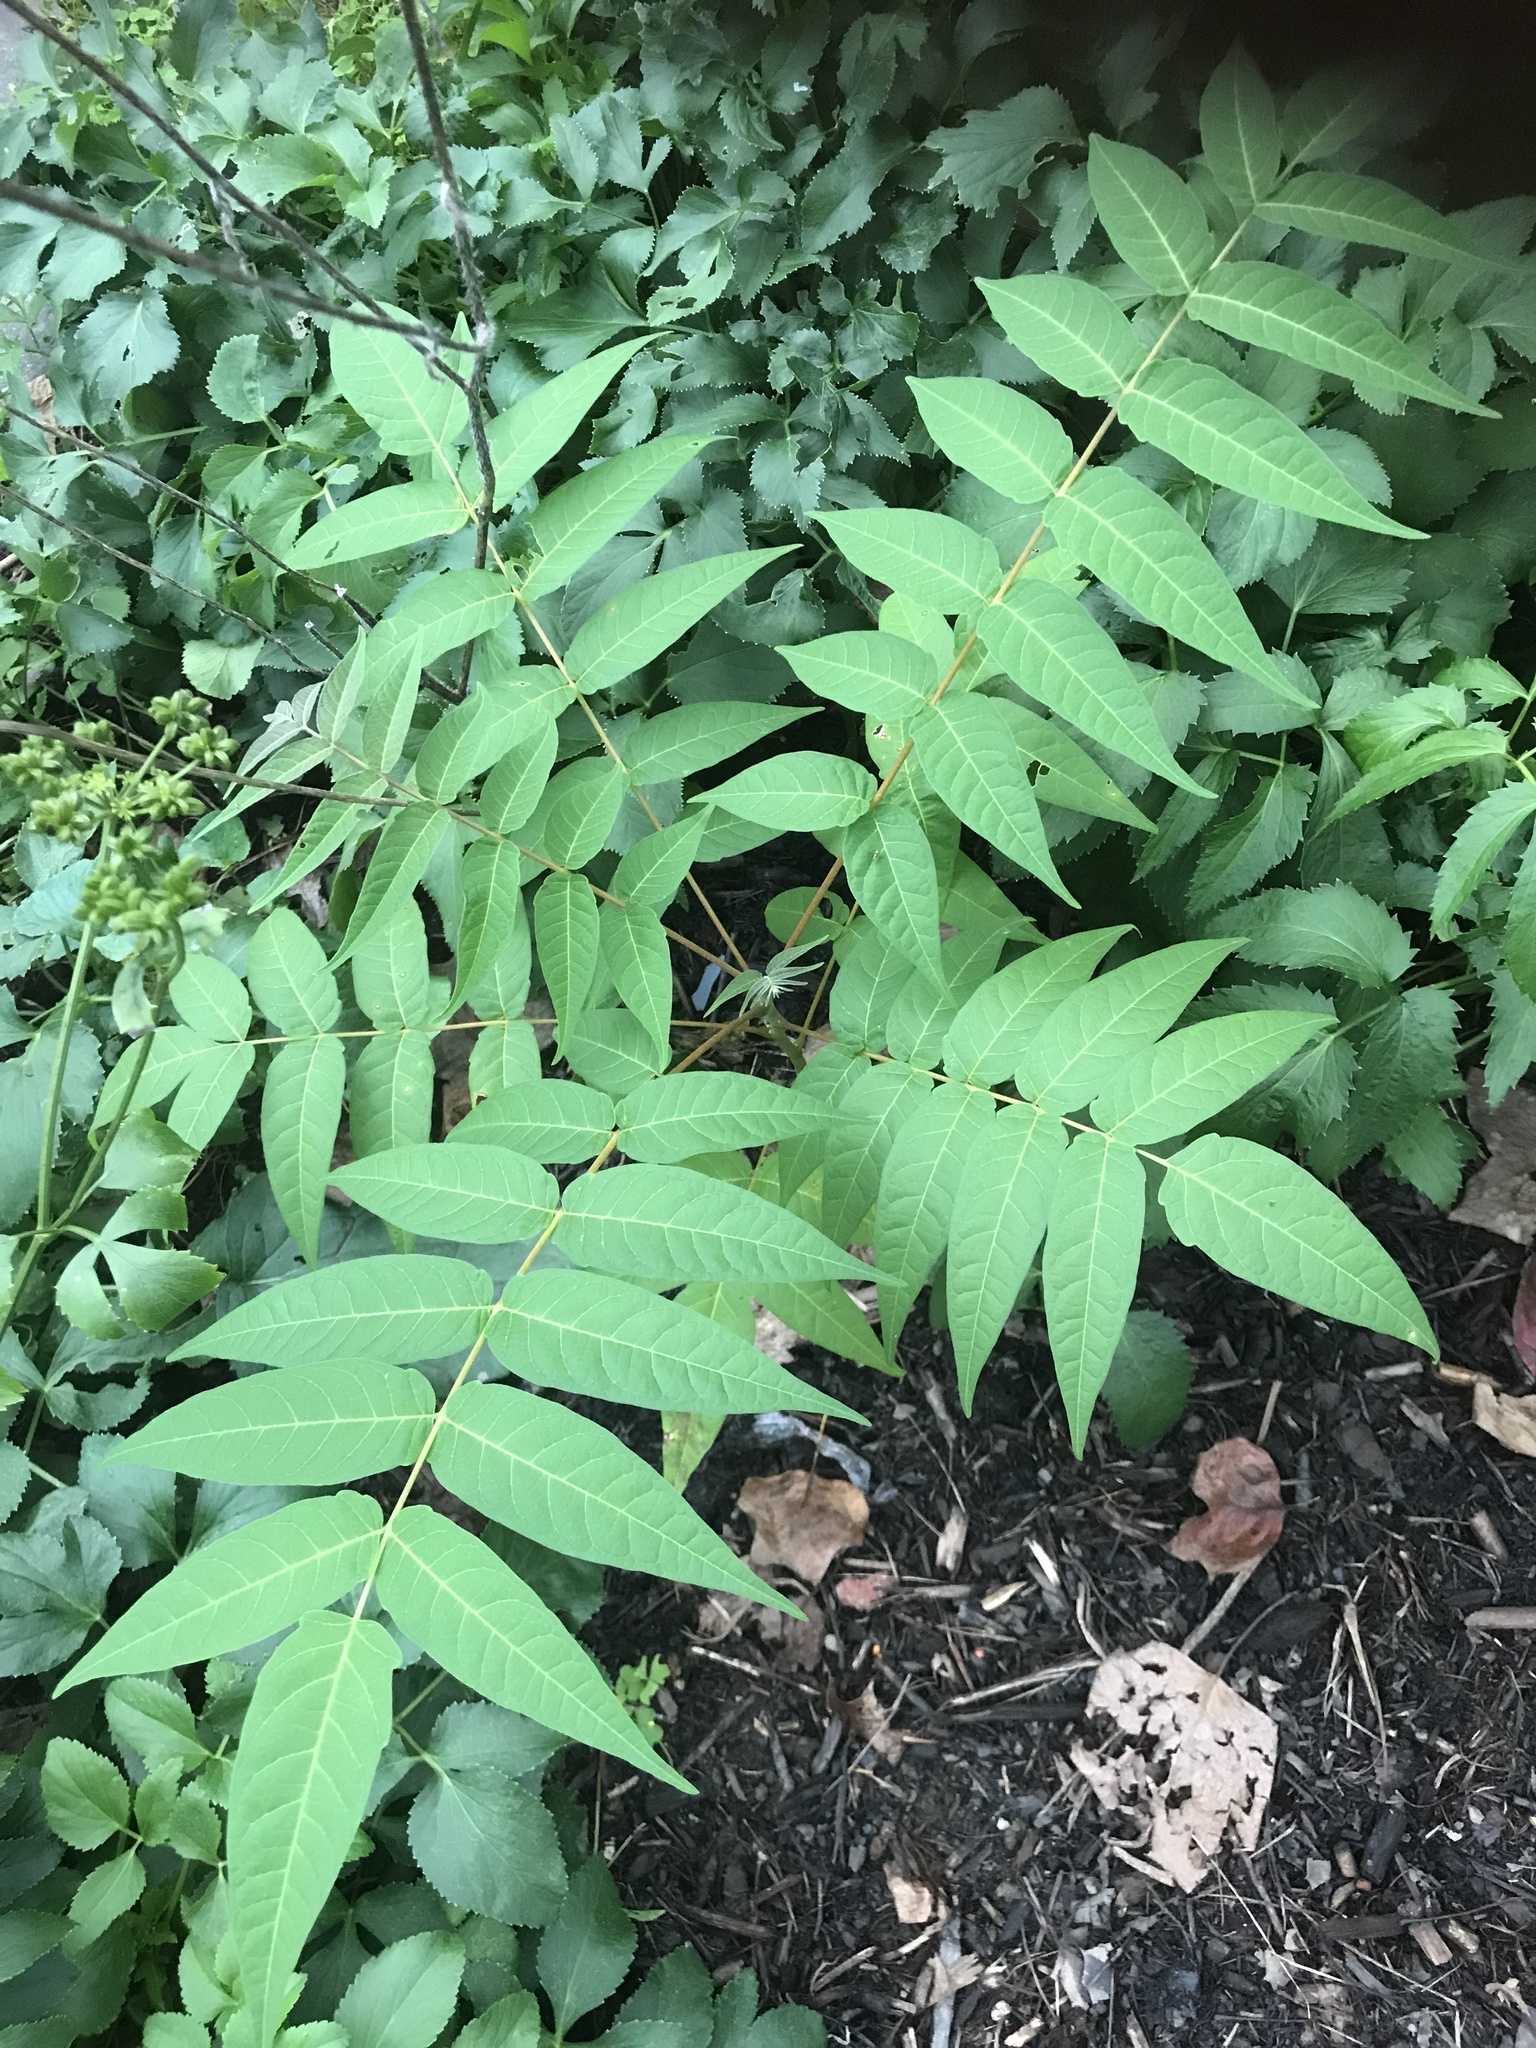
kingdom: Plantae
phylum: Tracheophyta
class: Magnoliopsida
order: Sapindales
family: Simaroubaceae
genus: Ailanthus
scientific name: Ailanthus altissima
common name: Tree-of-heaven
